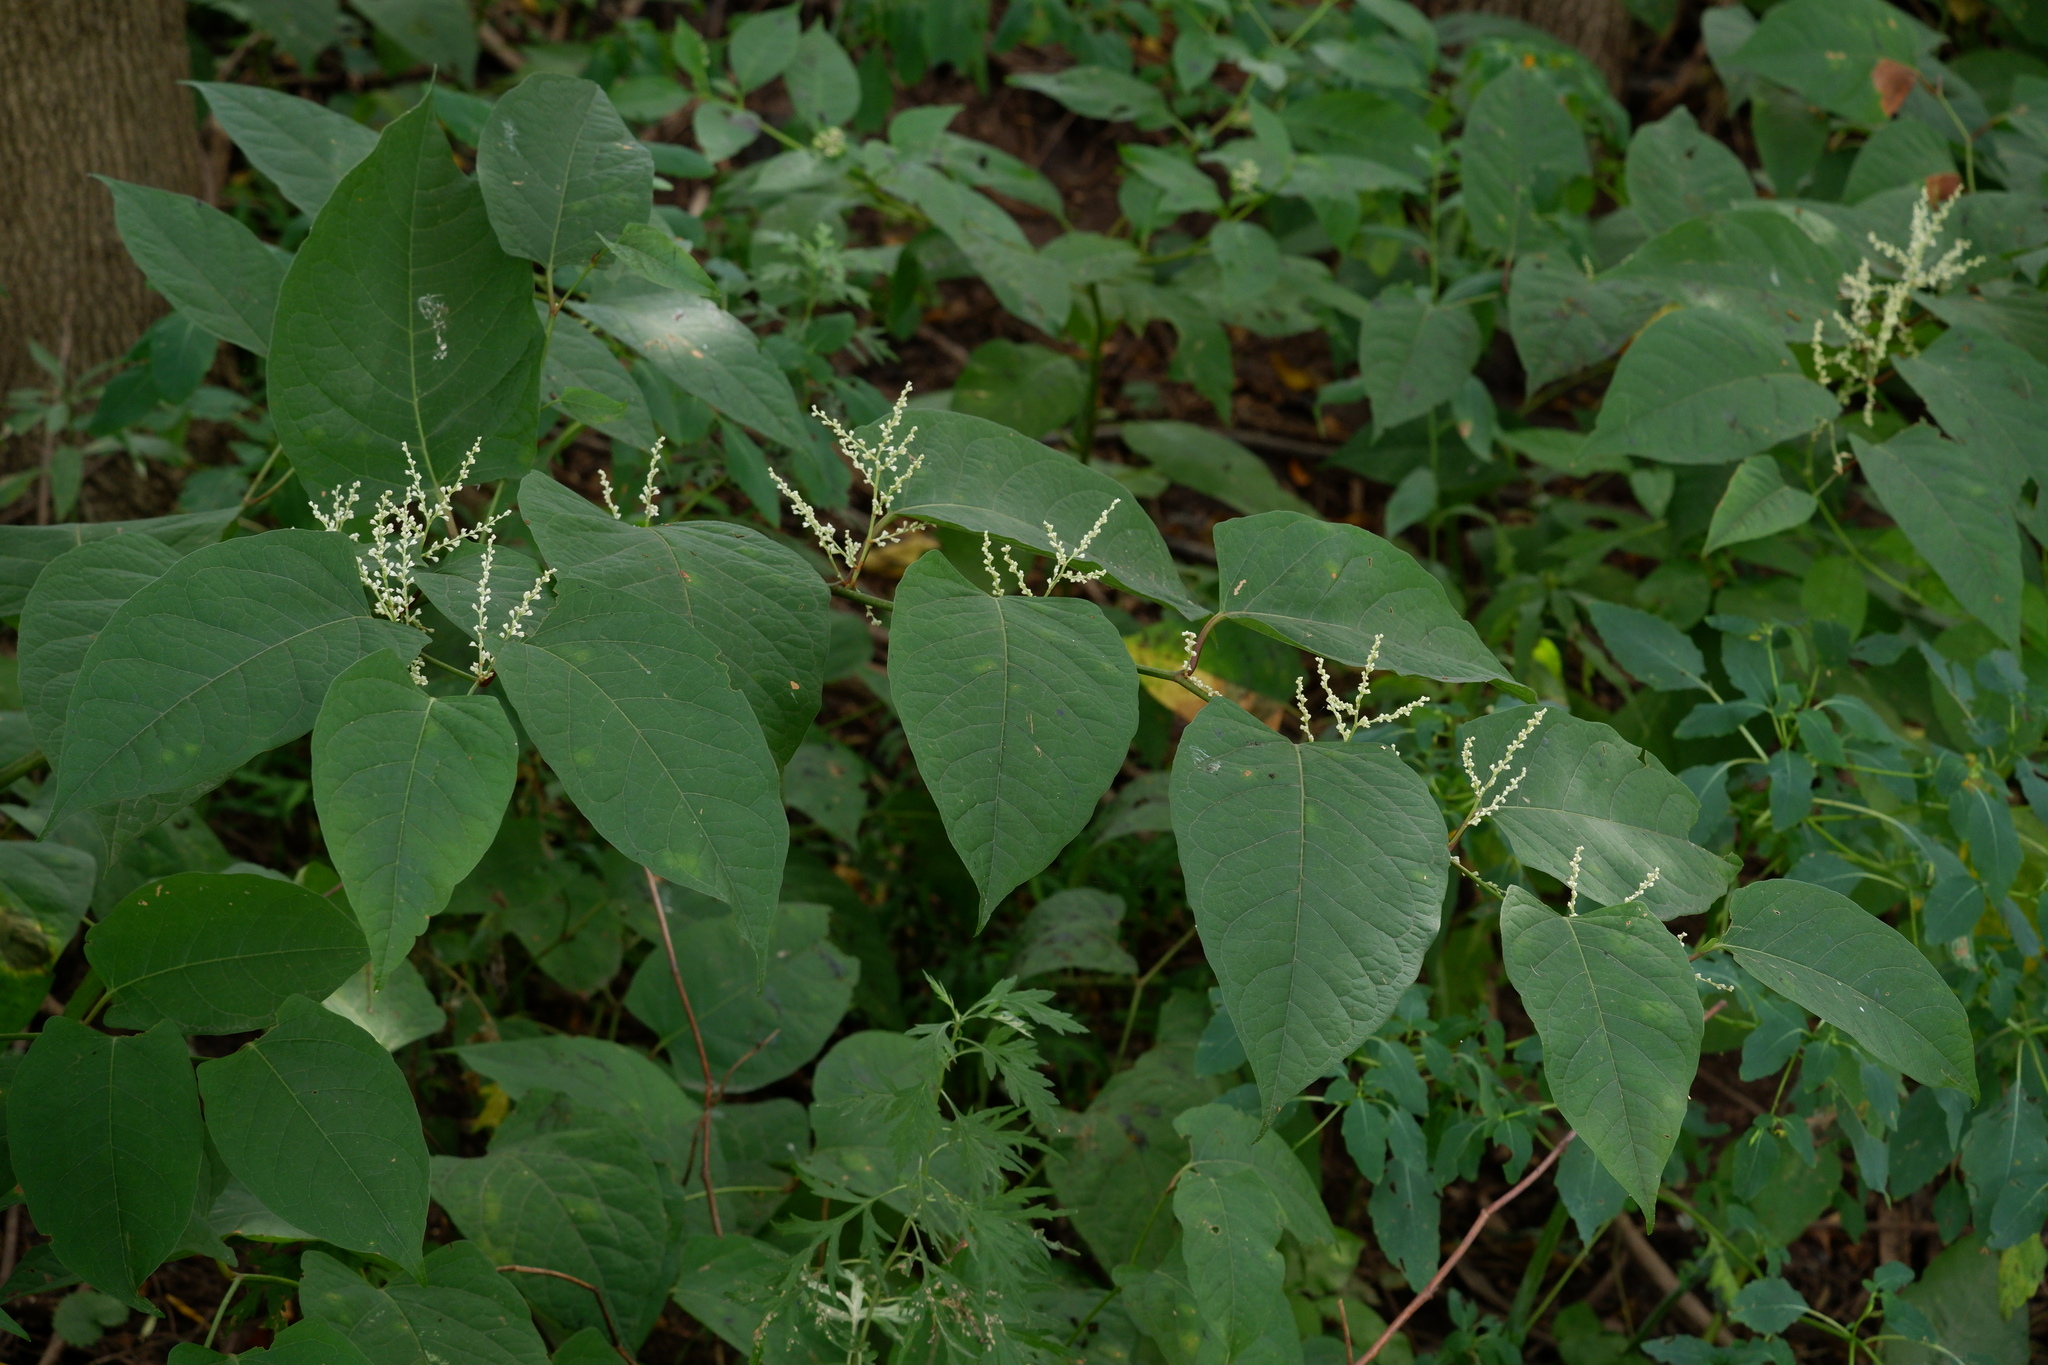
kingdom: Plantae
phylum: Tracheophyta
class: Magnoliopsida
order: Caryophyllales
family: Polygonaceae
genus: Reynoutria
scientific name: Reynoutria japonica
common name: Japanese knotweed
